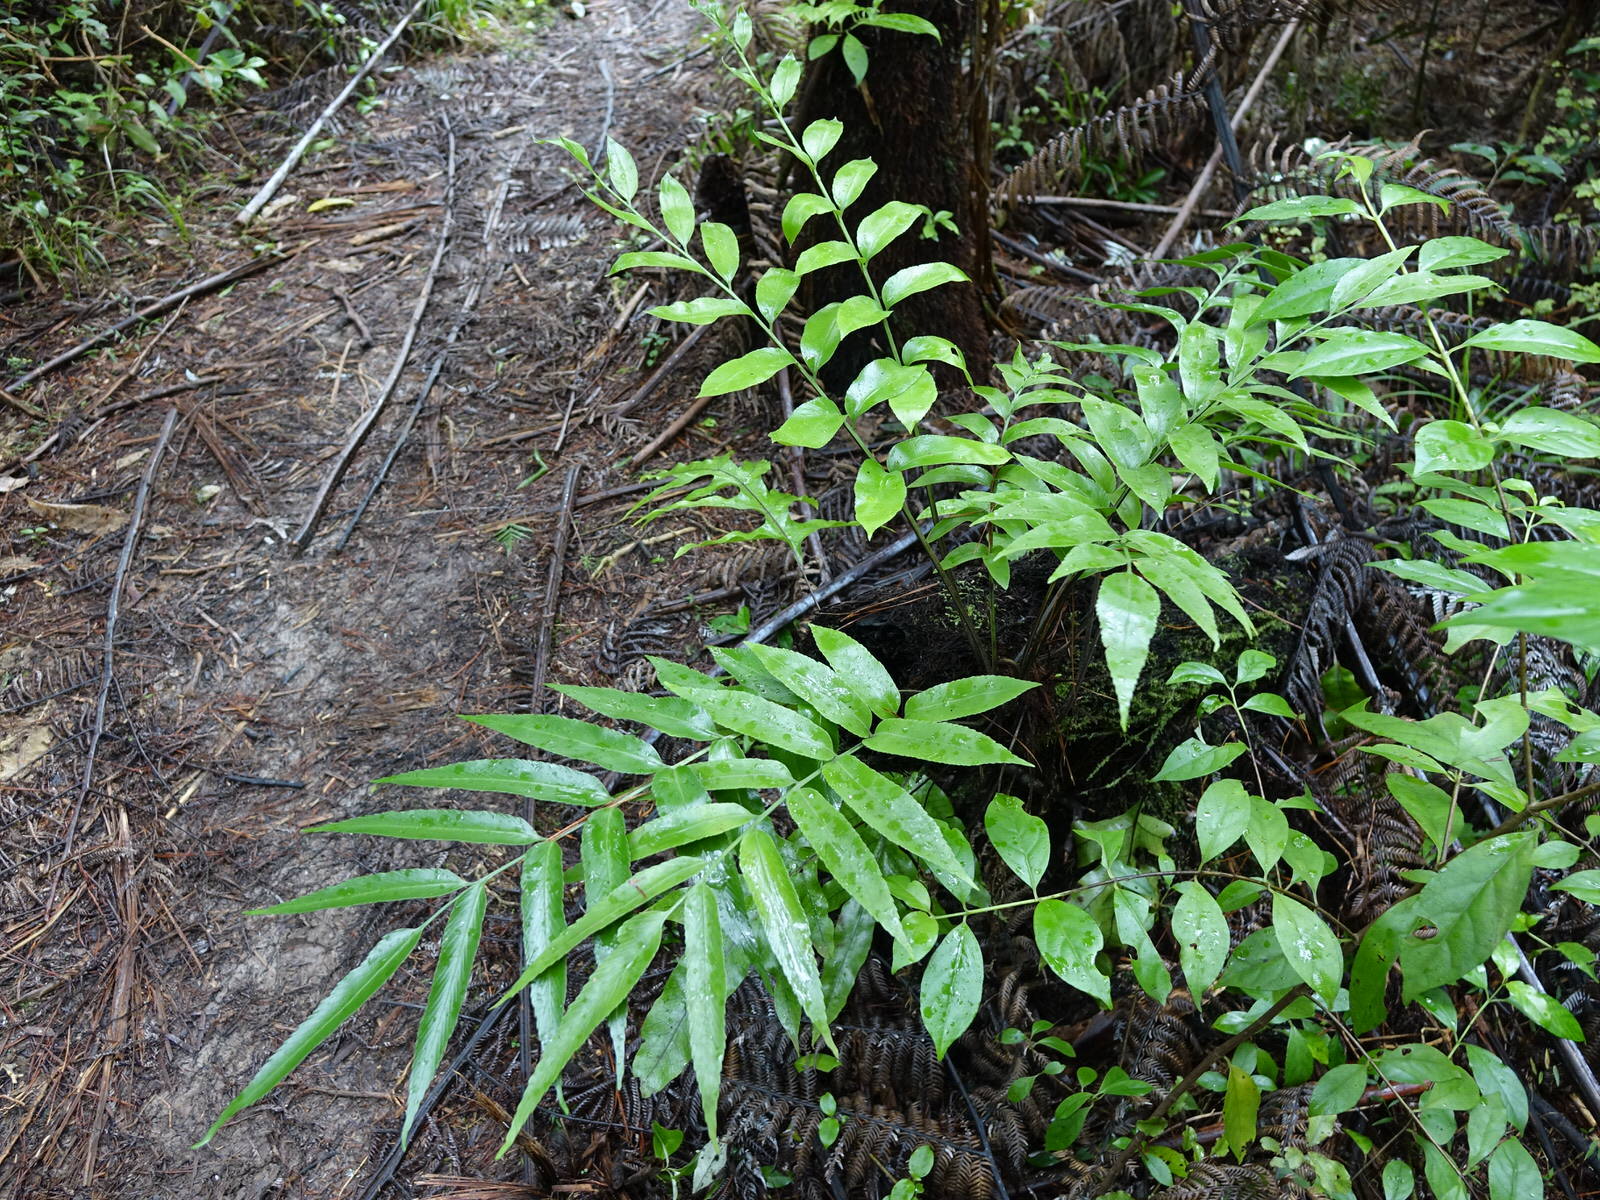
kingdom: Plantae
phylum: Tracheophyta
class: Polypodiopsida
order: Polypodiales
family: Aspleniaceae
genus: Asplenium
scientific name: Asplenium oblongifolium
